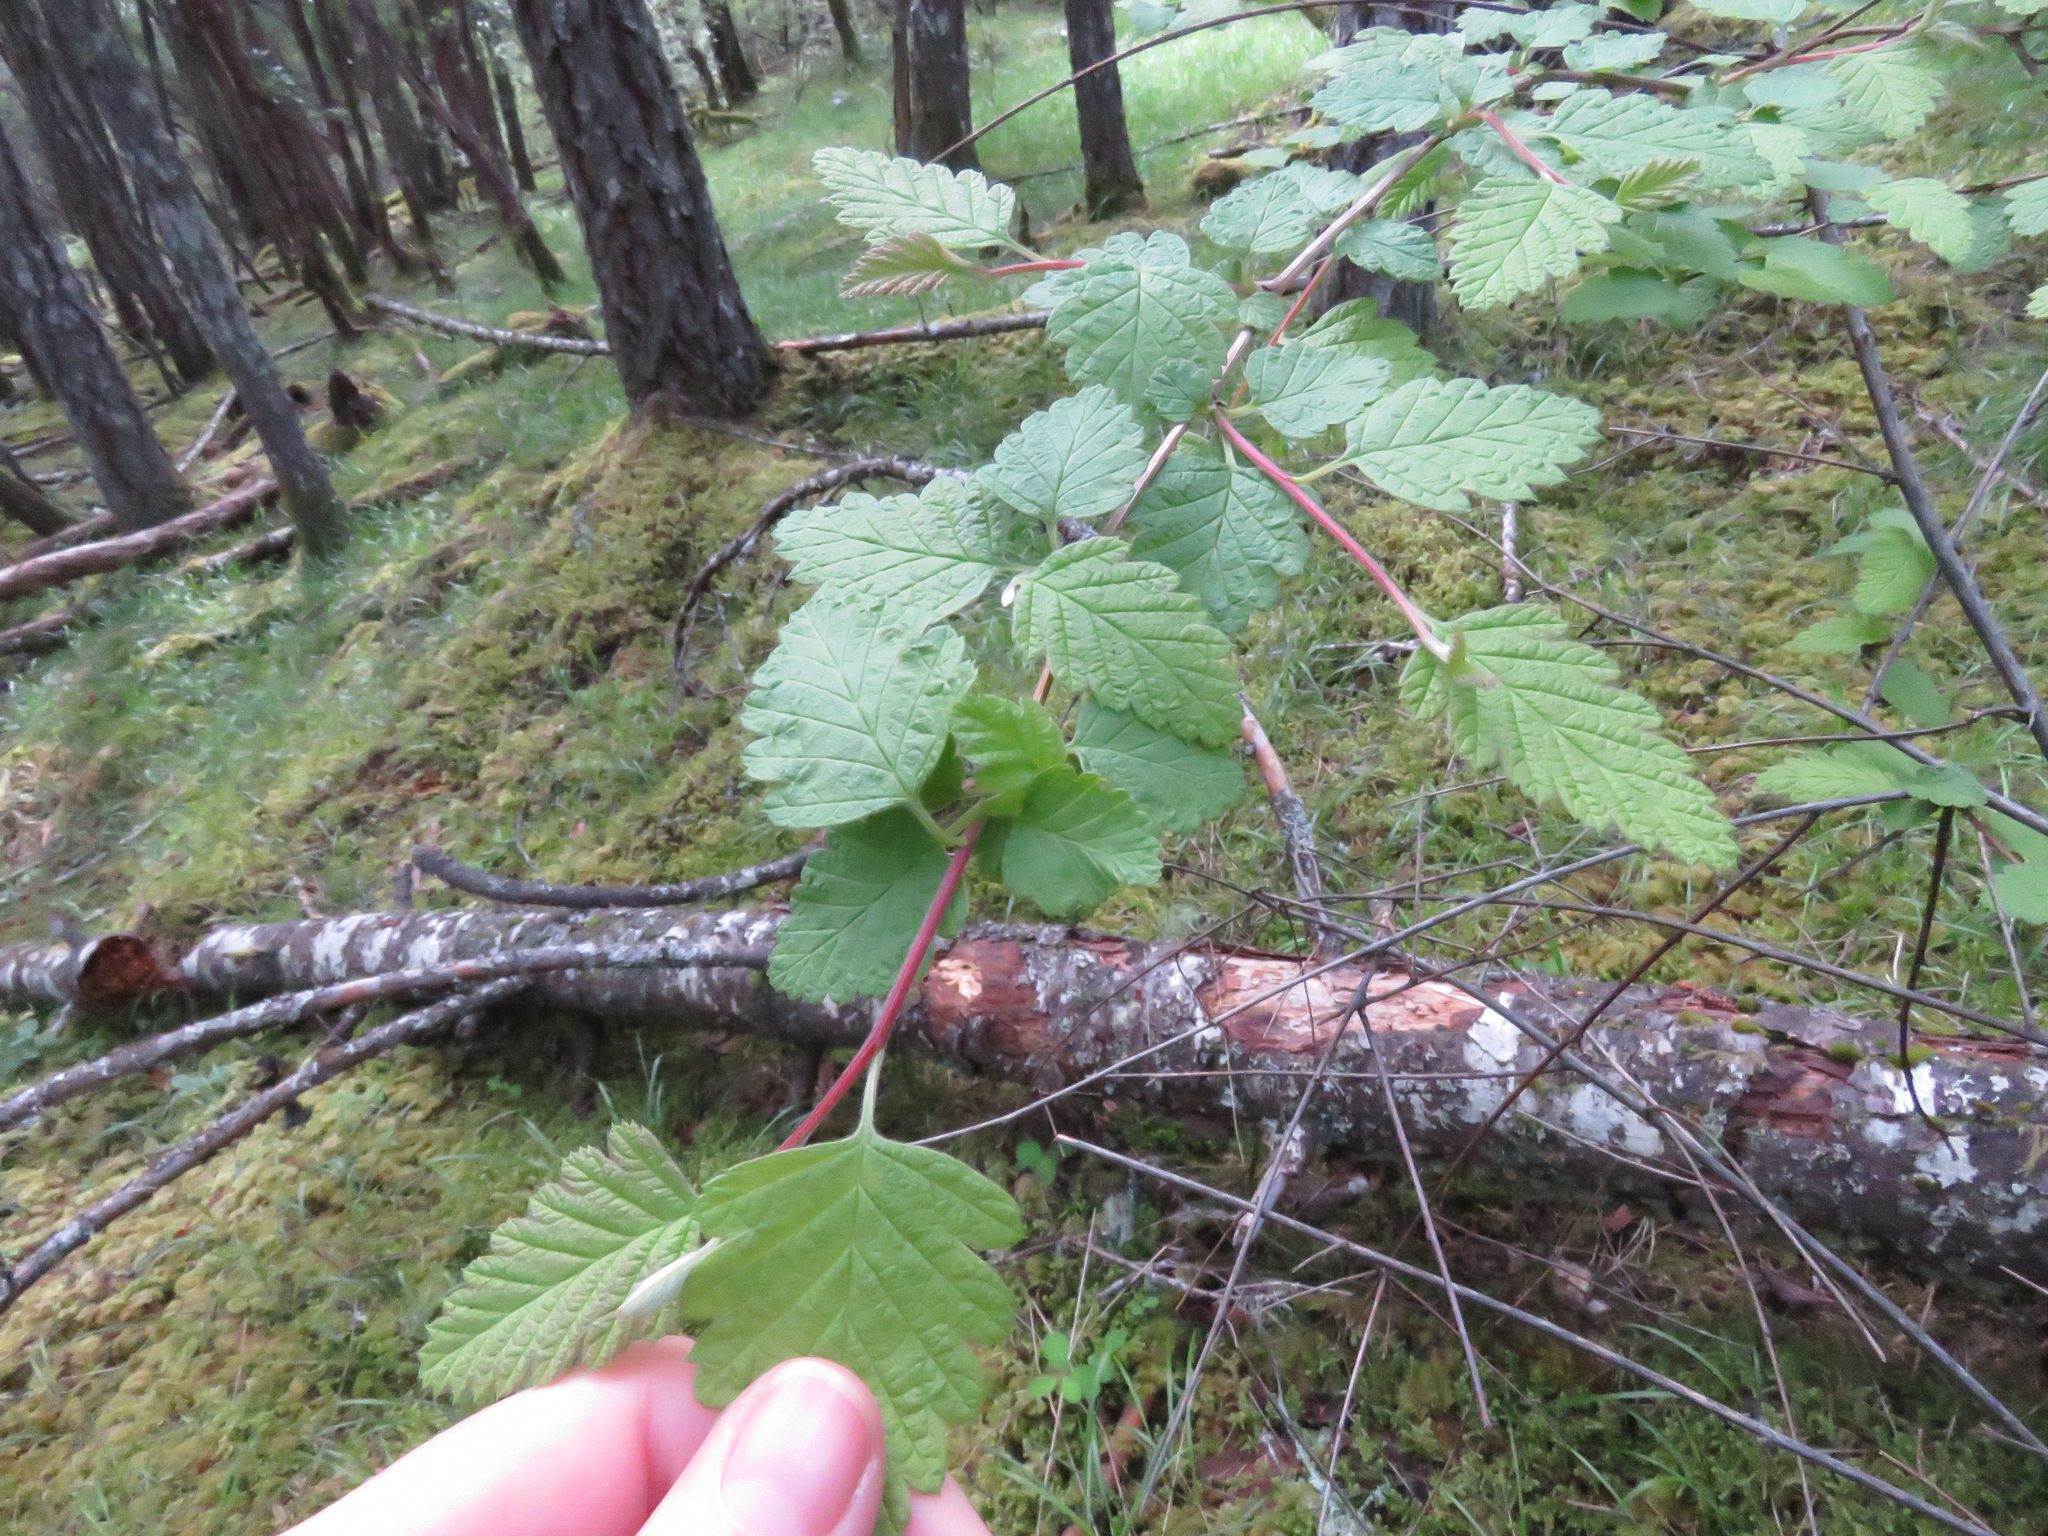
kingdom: Plantae
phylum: Tracheophyta
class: Magnoliopsida
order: Rosales
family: Rosaceae
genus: Holodiscus
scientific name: Holodiscus discolor
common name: Oceanspray
